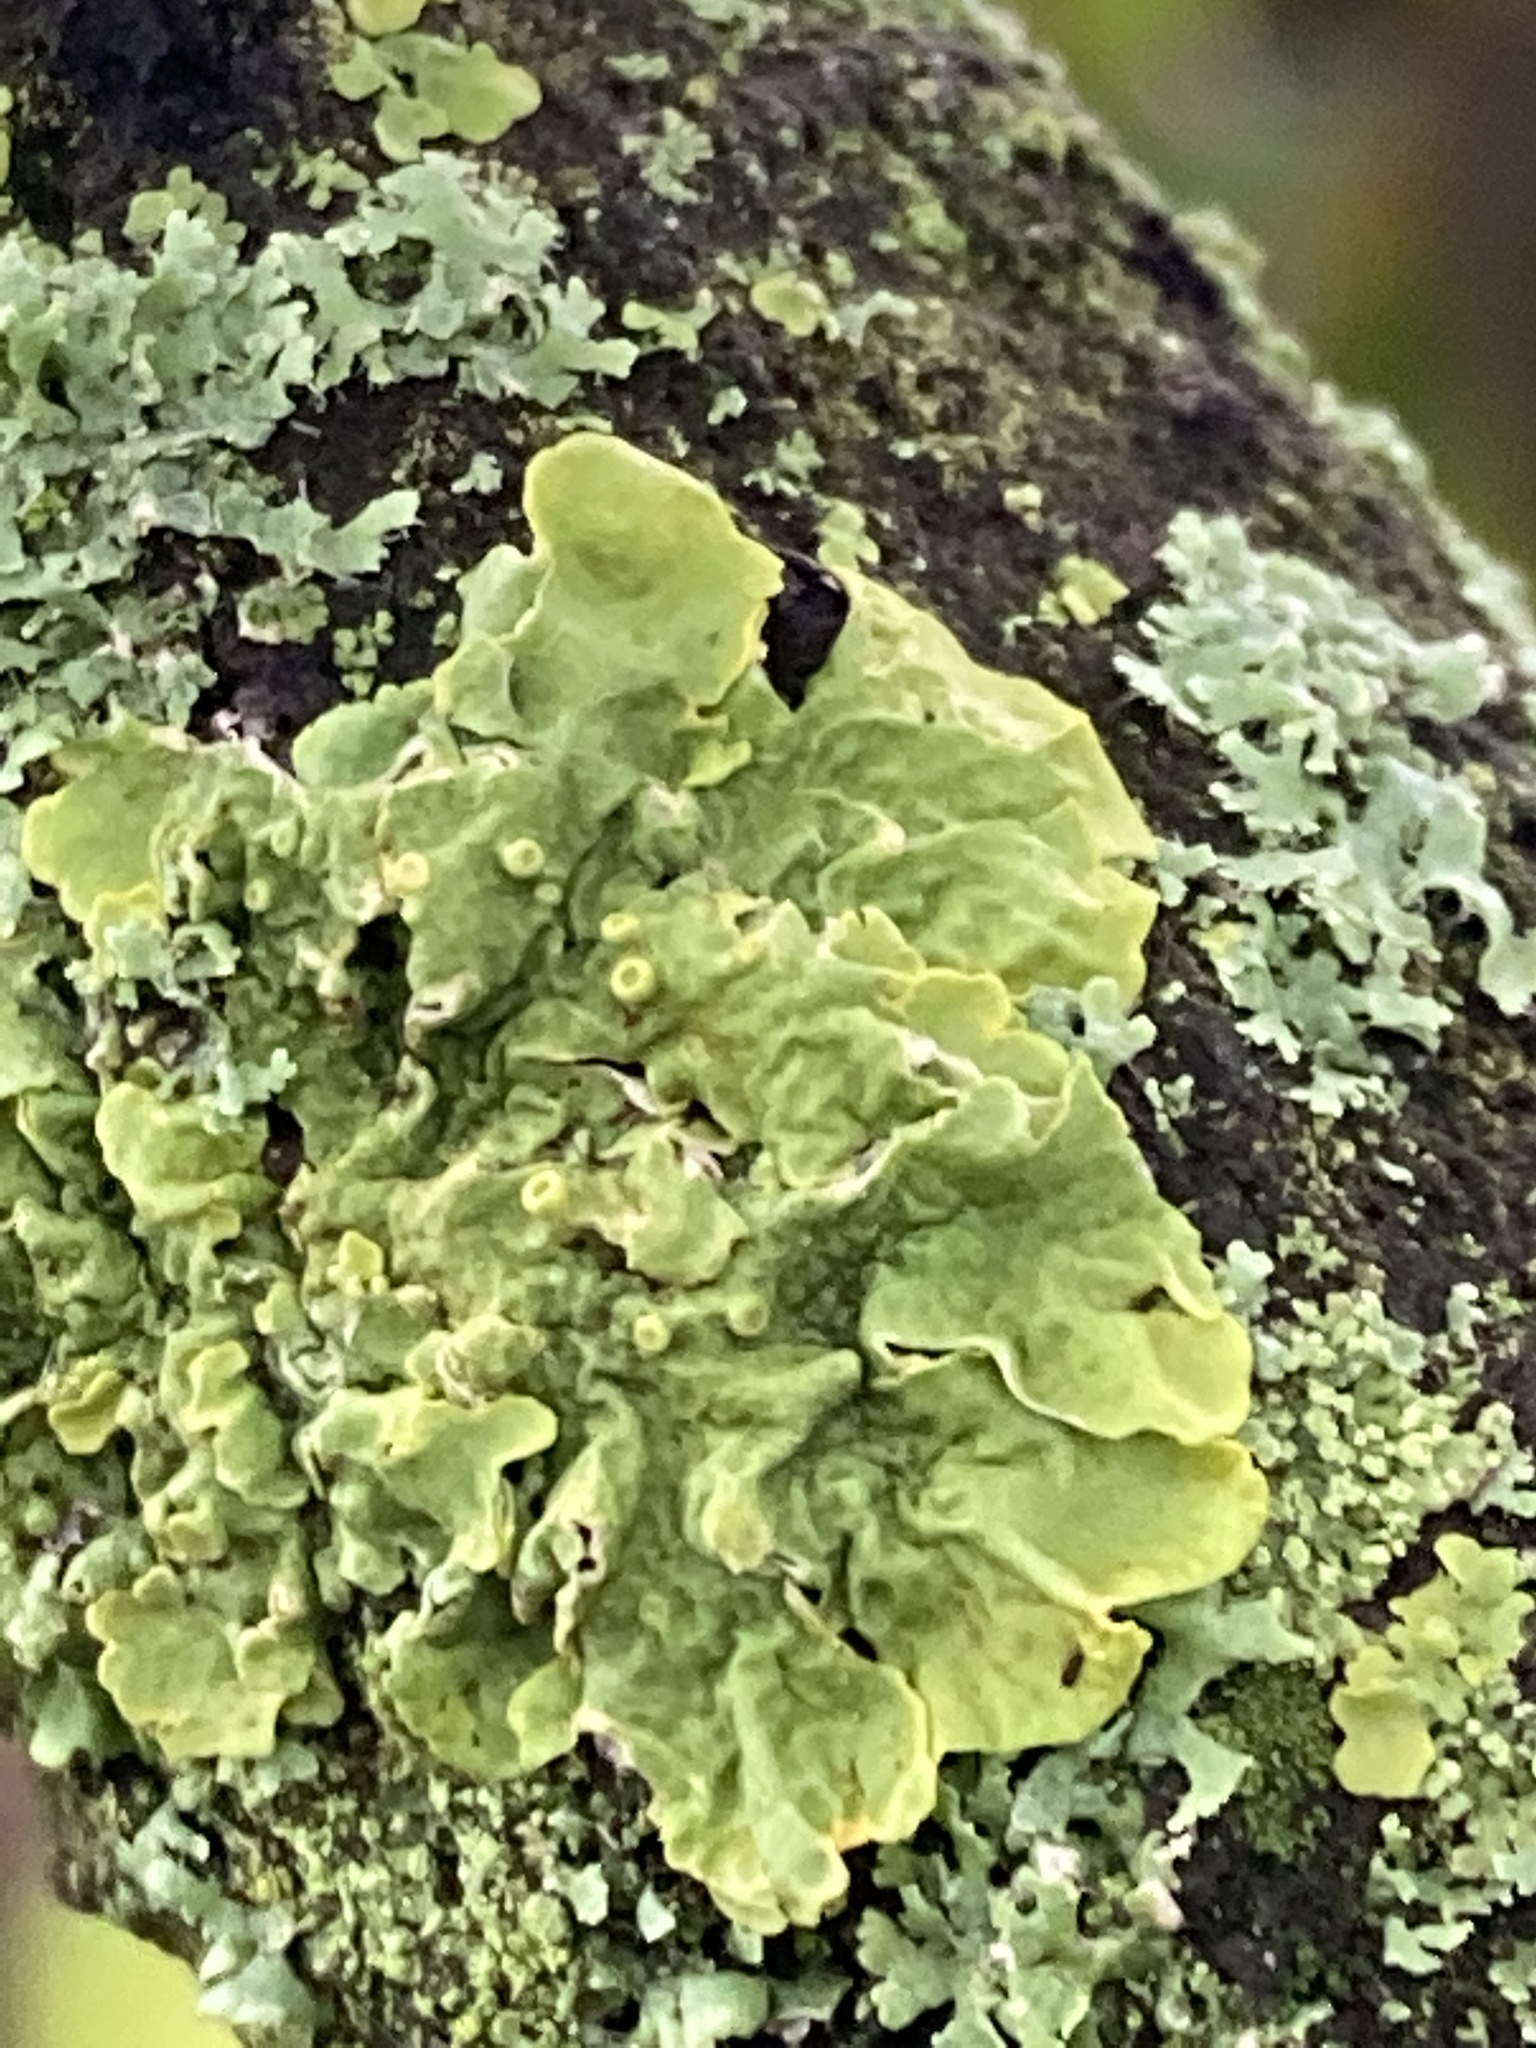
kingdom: Fungi
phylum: Ascomycota
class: Lecanoromycetes
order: Teloschistales
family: Teloschistaceae
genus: Xanthoria
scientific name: Xanthoria parietina
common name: Common orange lichen
